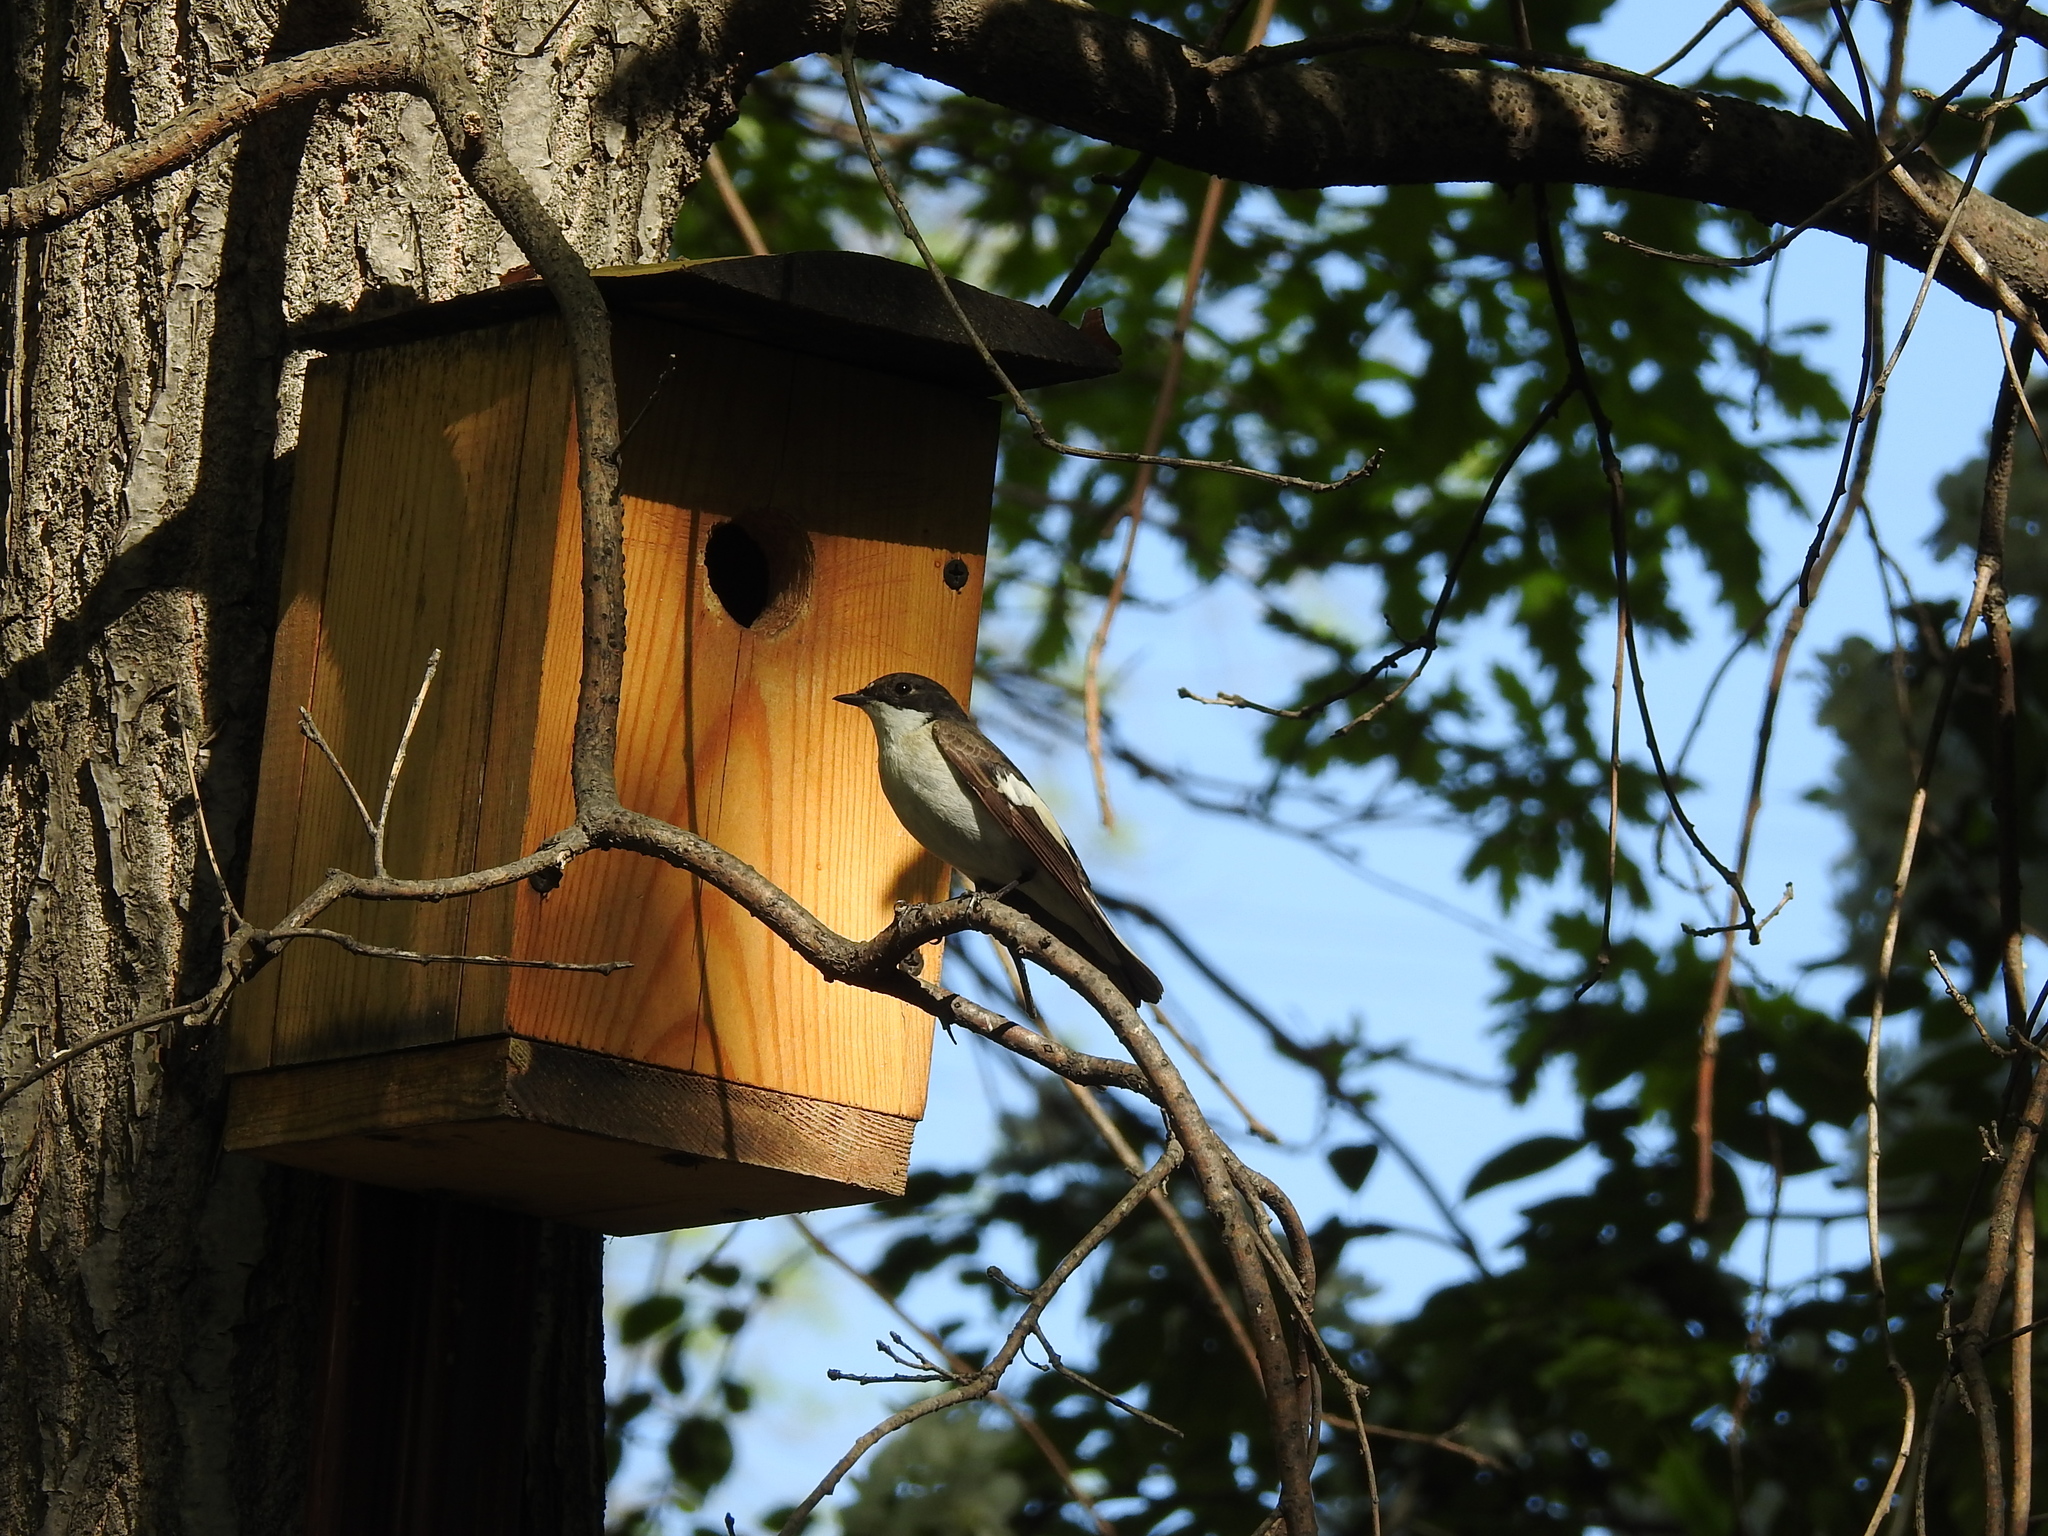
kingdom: Animalia
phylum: Chordata
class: Aves
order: Passeriformes
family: Muscicapidae
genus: Ficedula
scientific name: Ficedula hypoleuca
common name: European pied flycatcher
